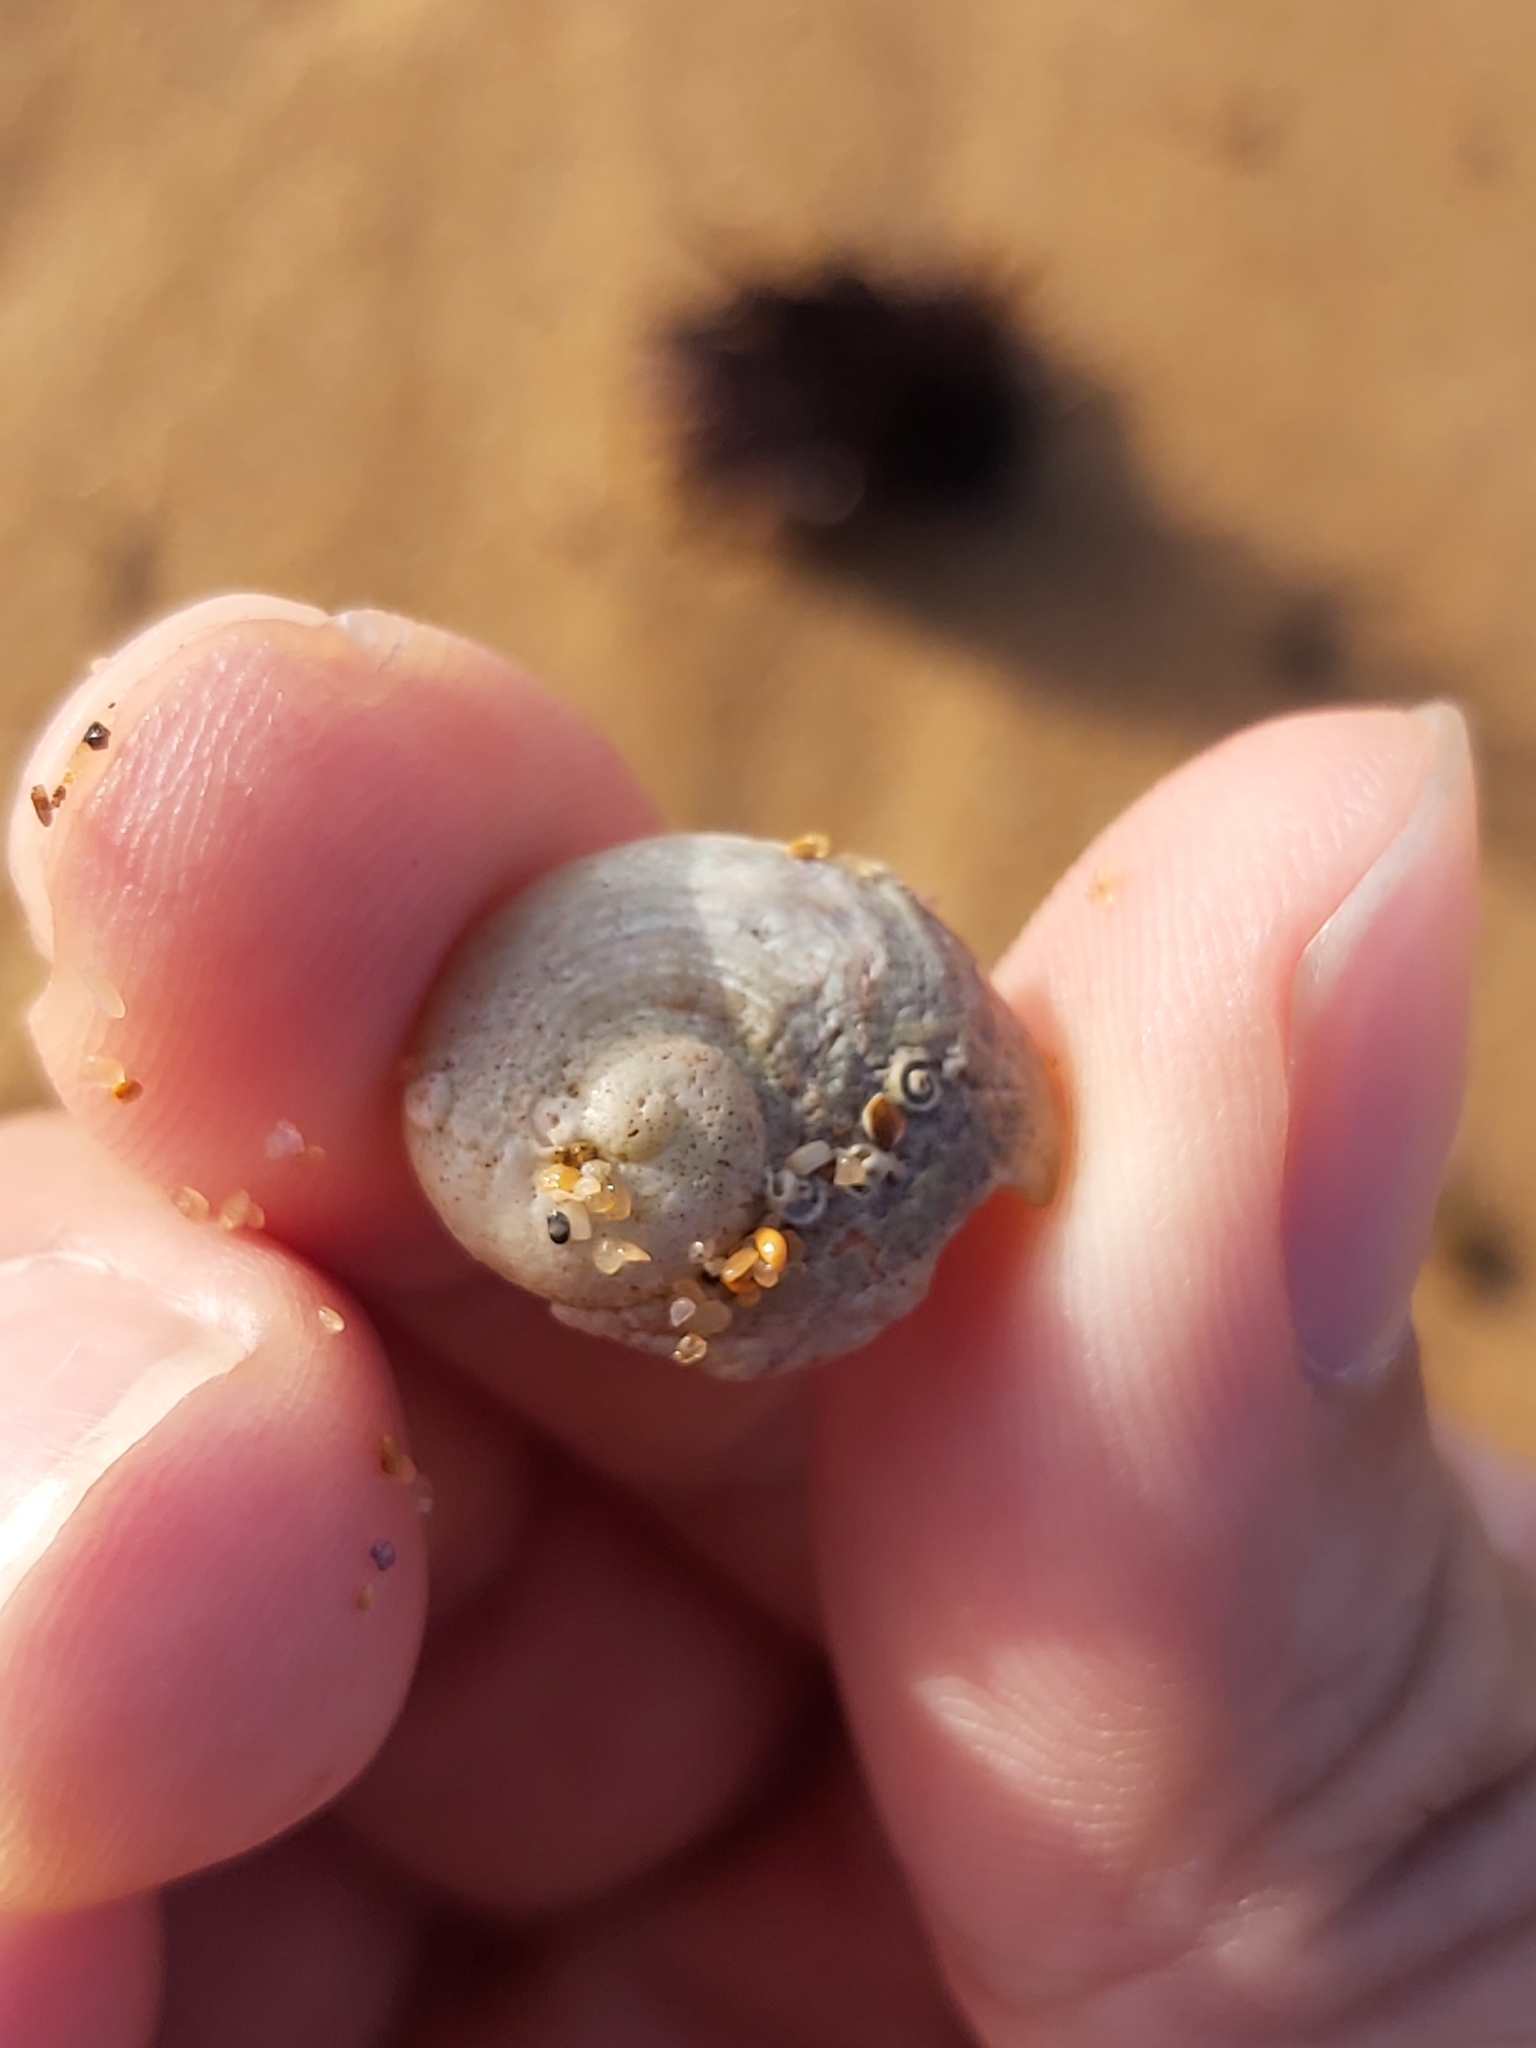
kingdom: Animalia
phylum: Mollusca
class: Gastropoda
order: Seguenziida
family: Chilodontaidae
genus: Granata
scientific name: Granata imbricata
